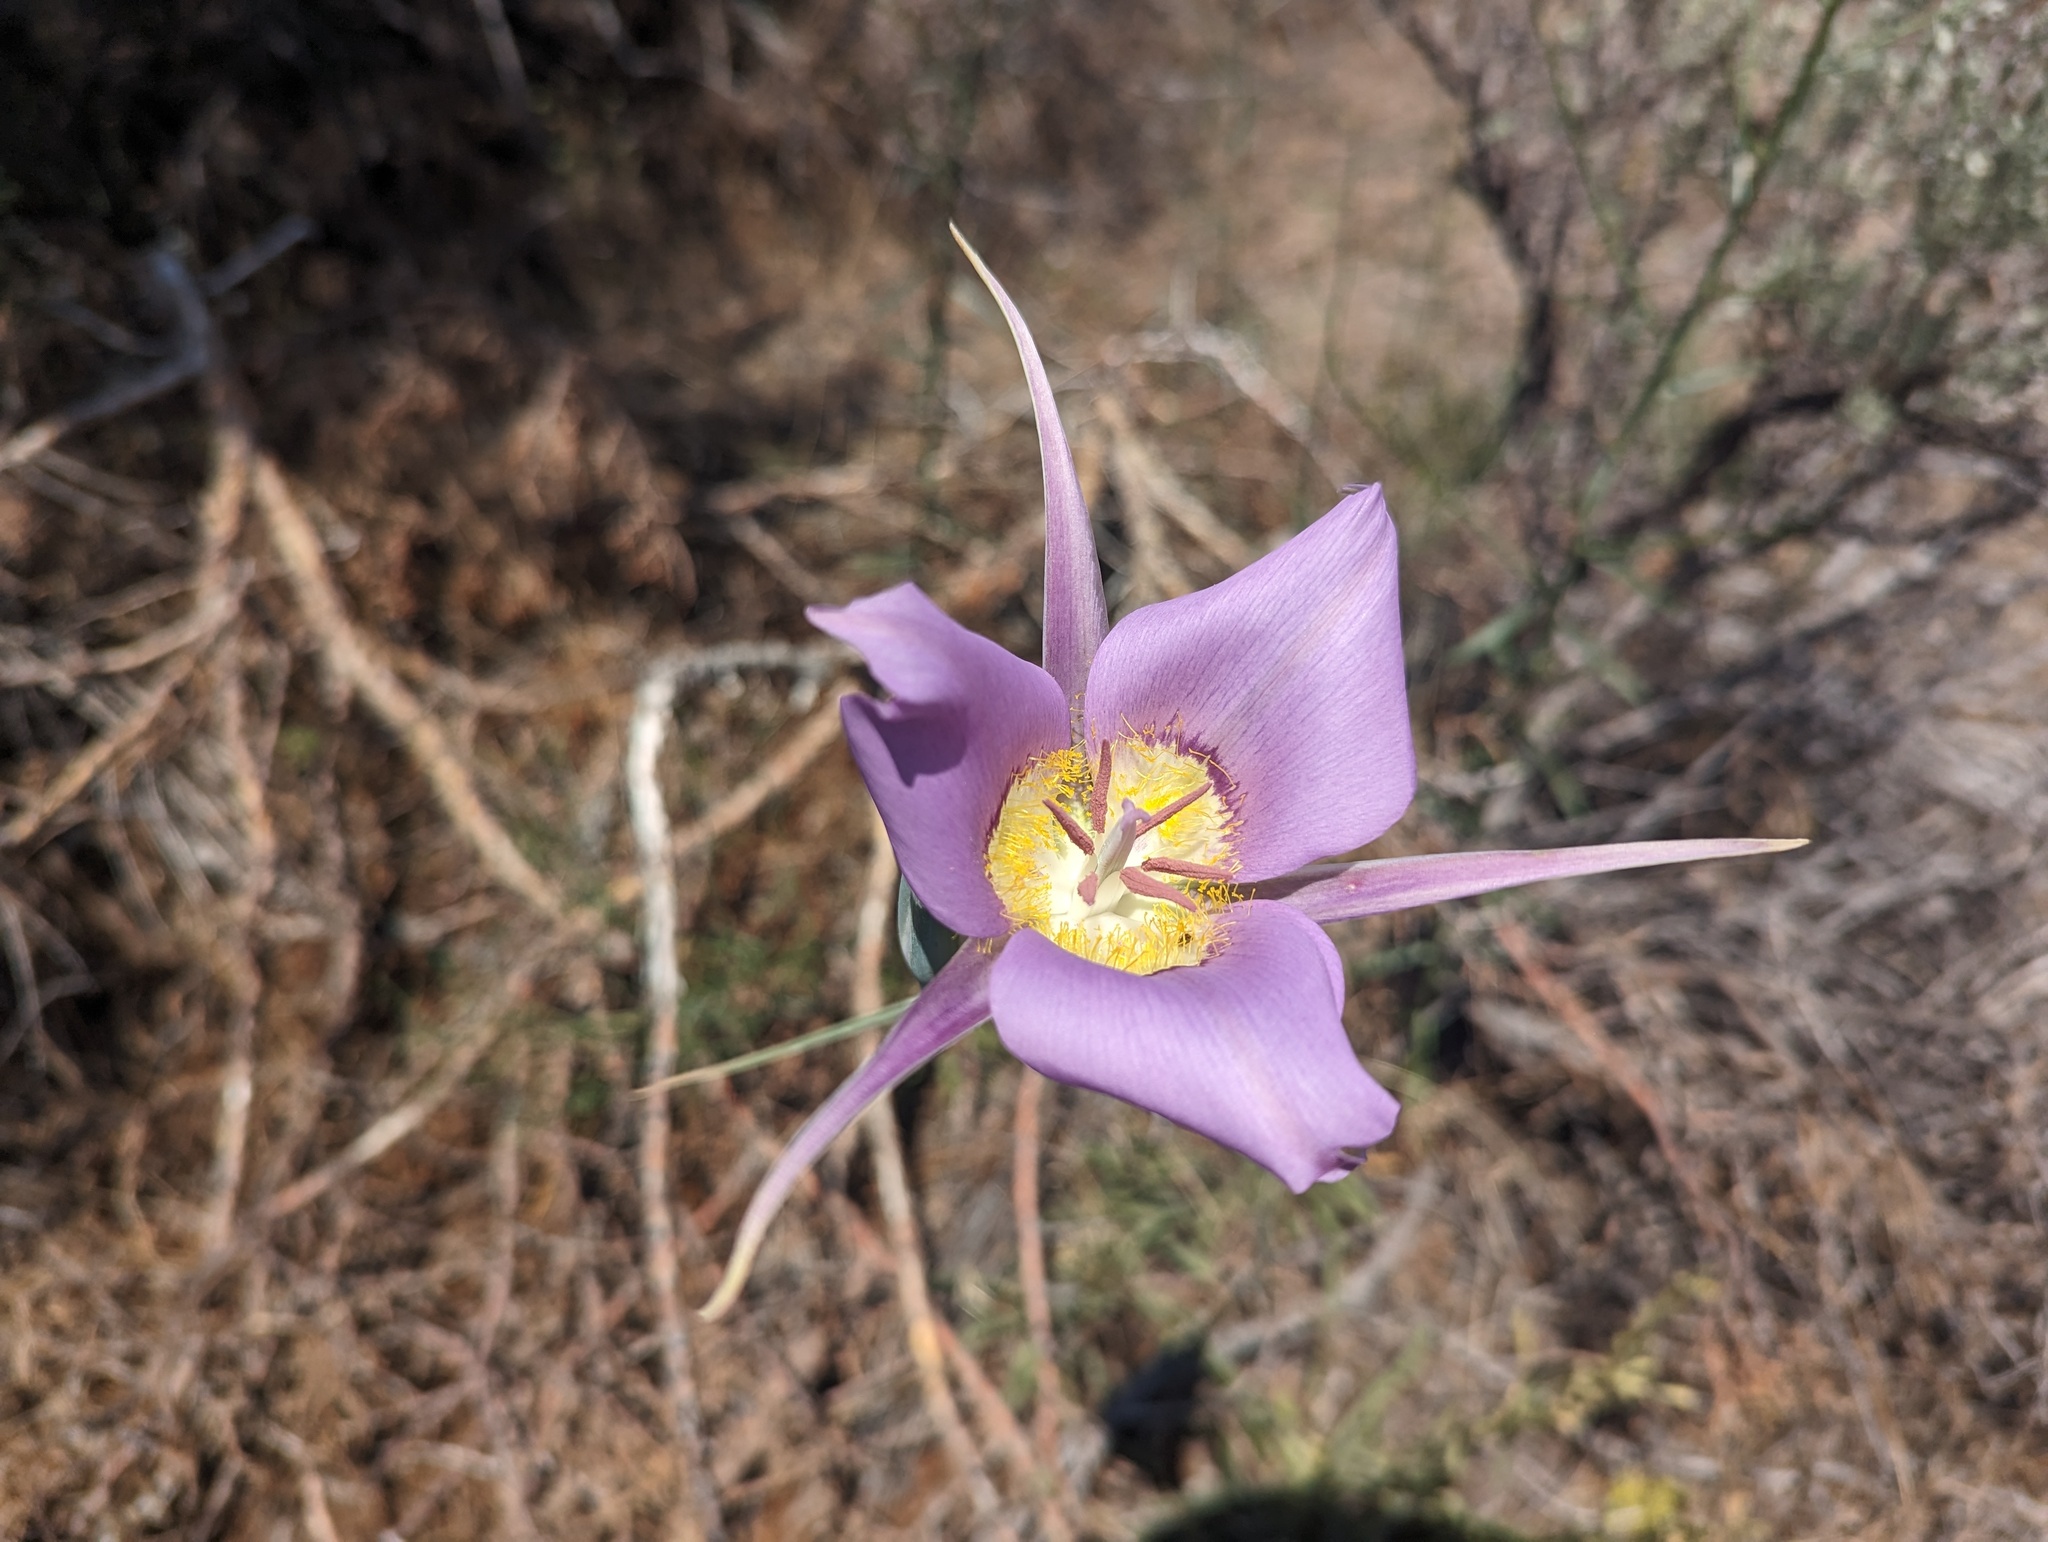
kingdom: Plantae
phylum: Tracheophyta
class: Liliopsida
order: Liliales
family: Liliaceae
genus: Calochortus
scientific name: Calochortus macrocarpus
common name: Green-band mariposa lily
